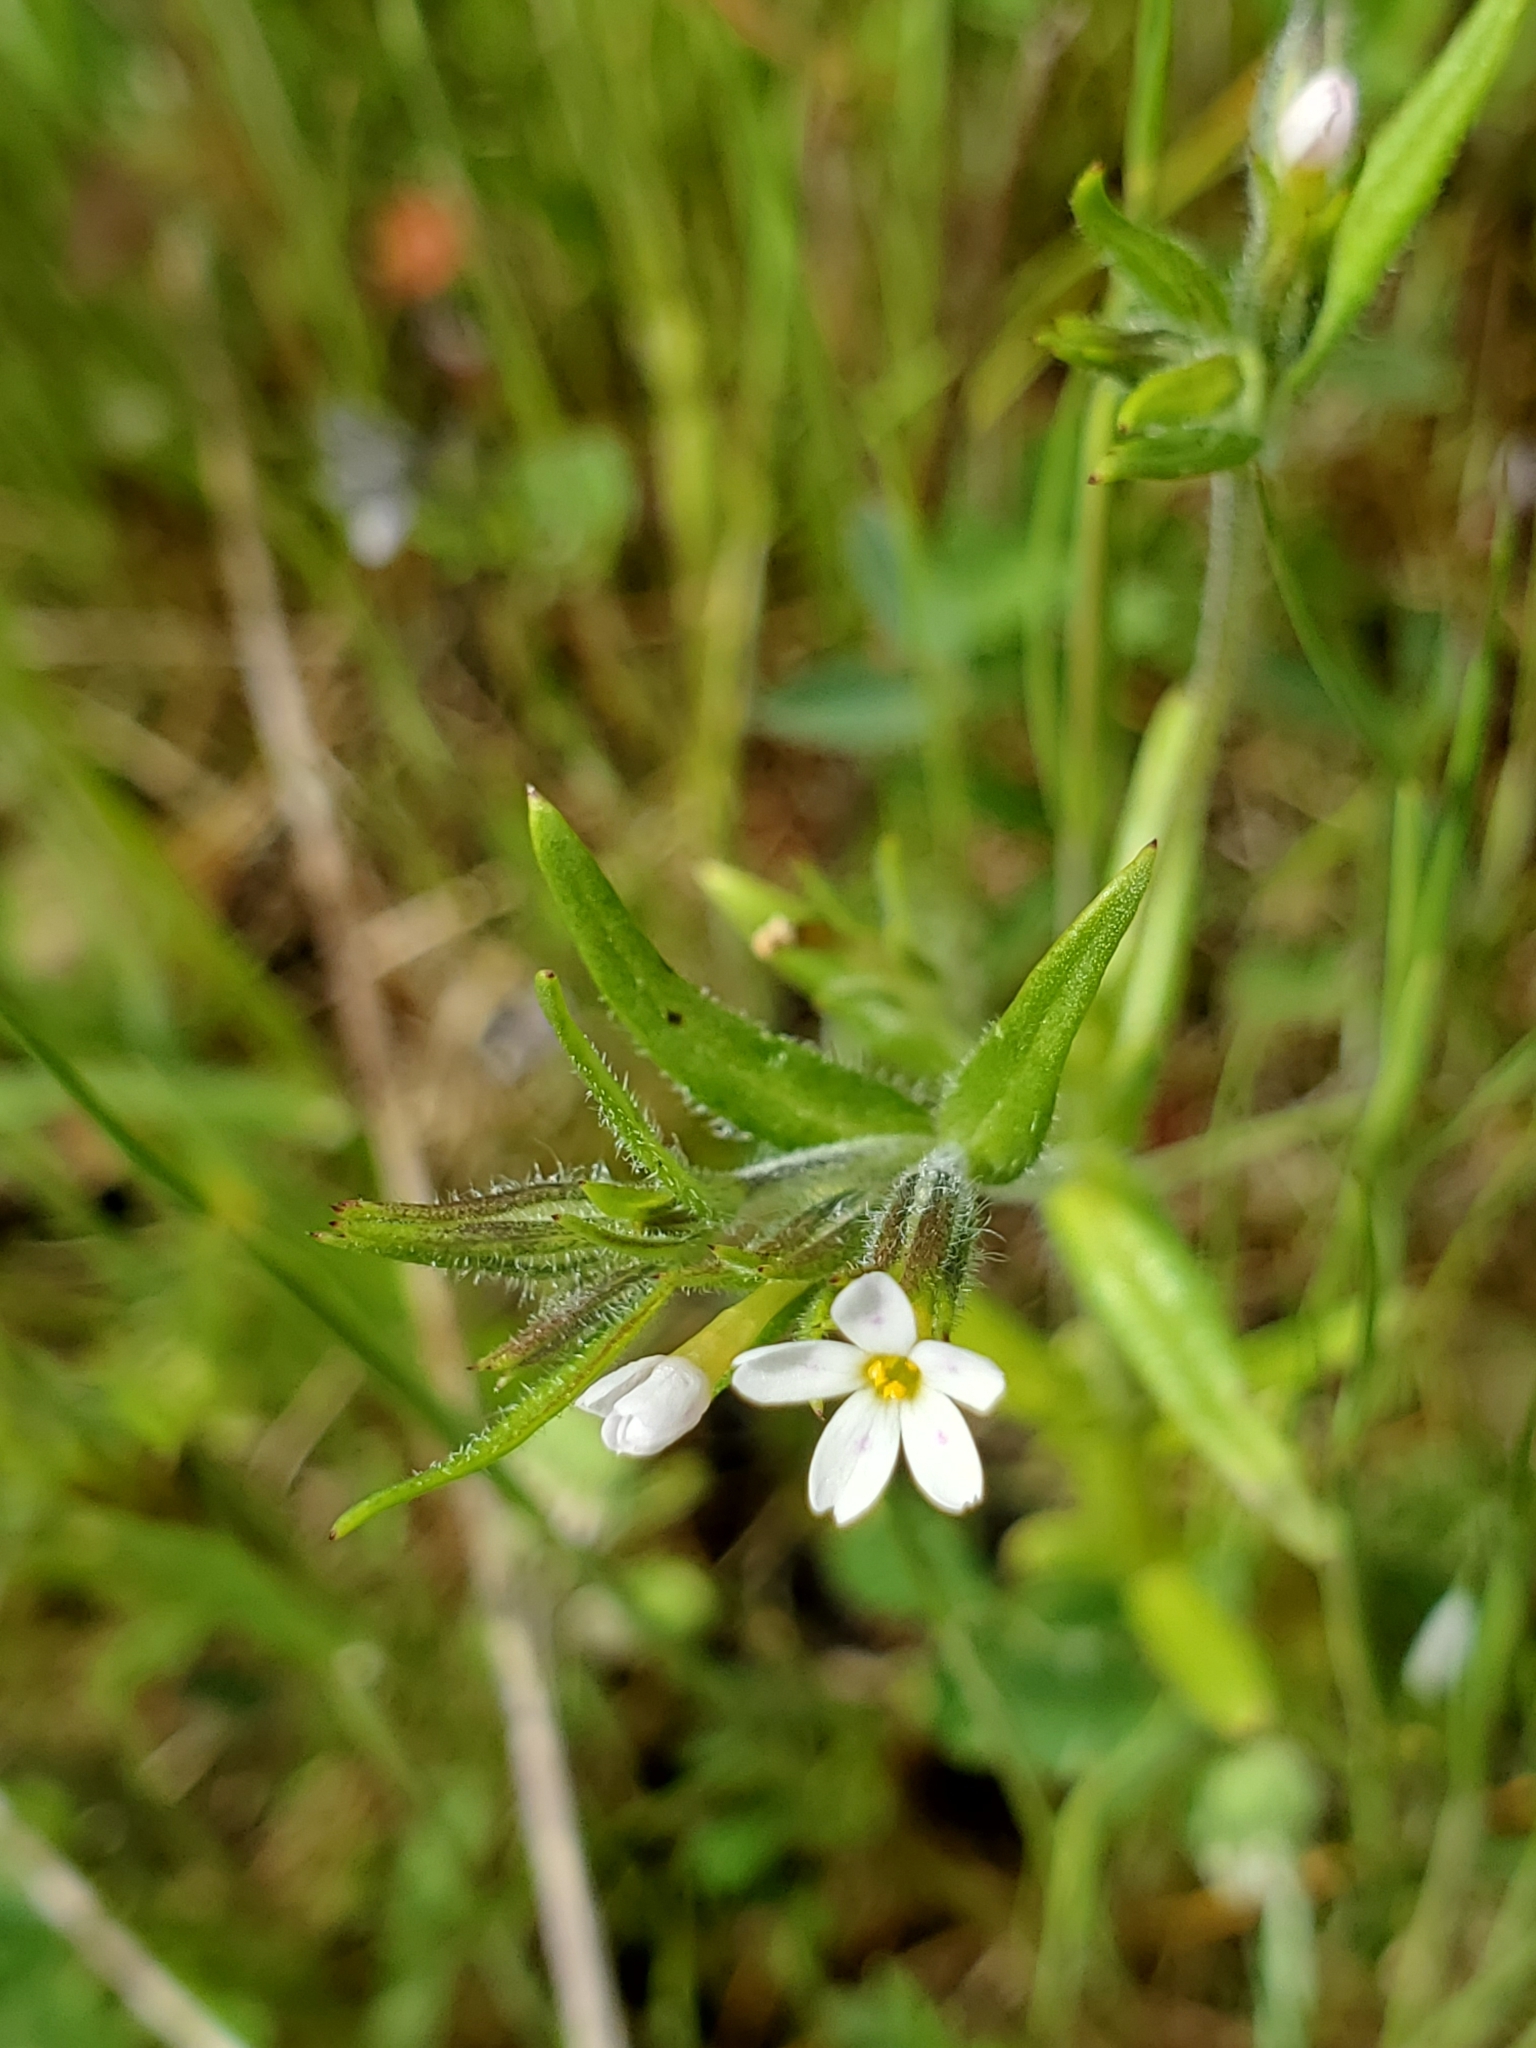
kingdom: Plantae
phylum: Tracheophyta
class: Magnoliopsida
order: Ericales
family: Polemoniaceae
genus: Phlox
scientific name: Phlox gracilis
